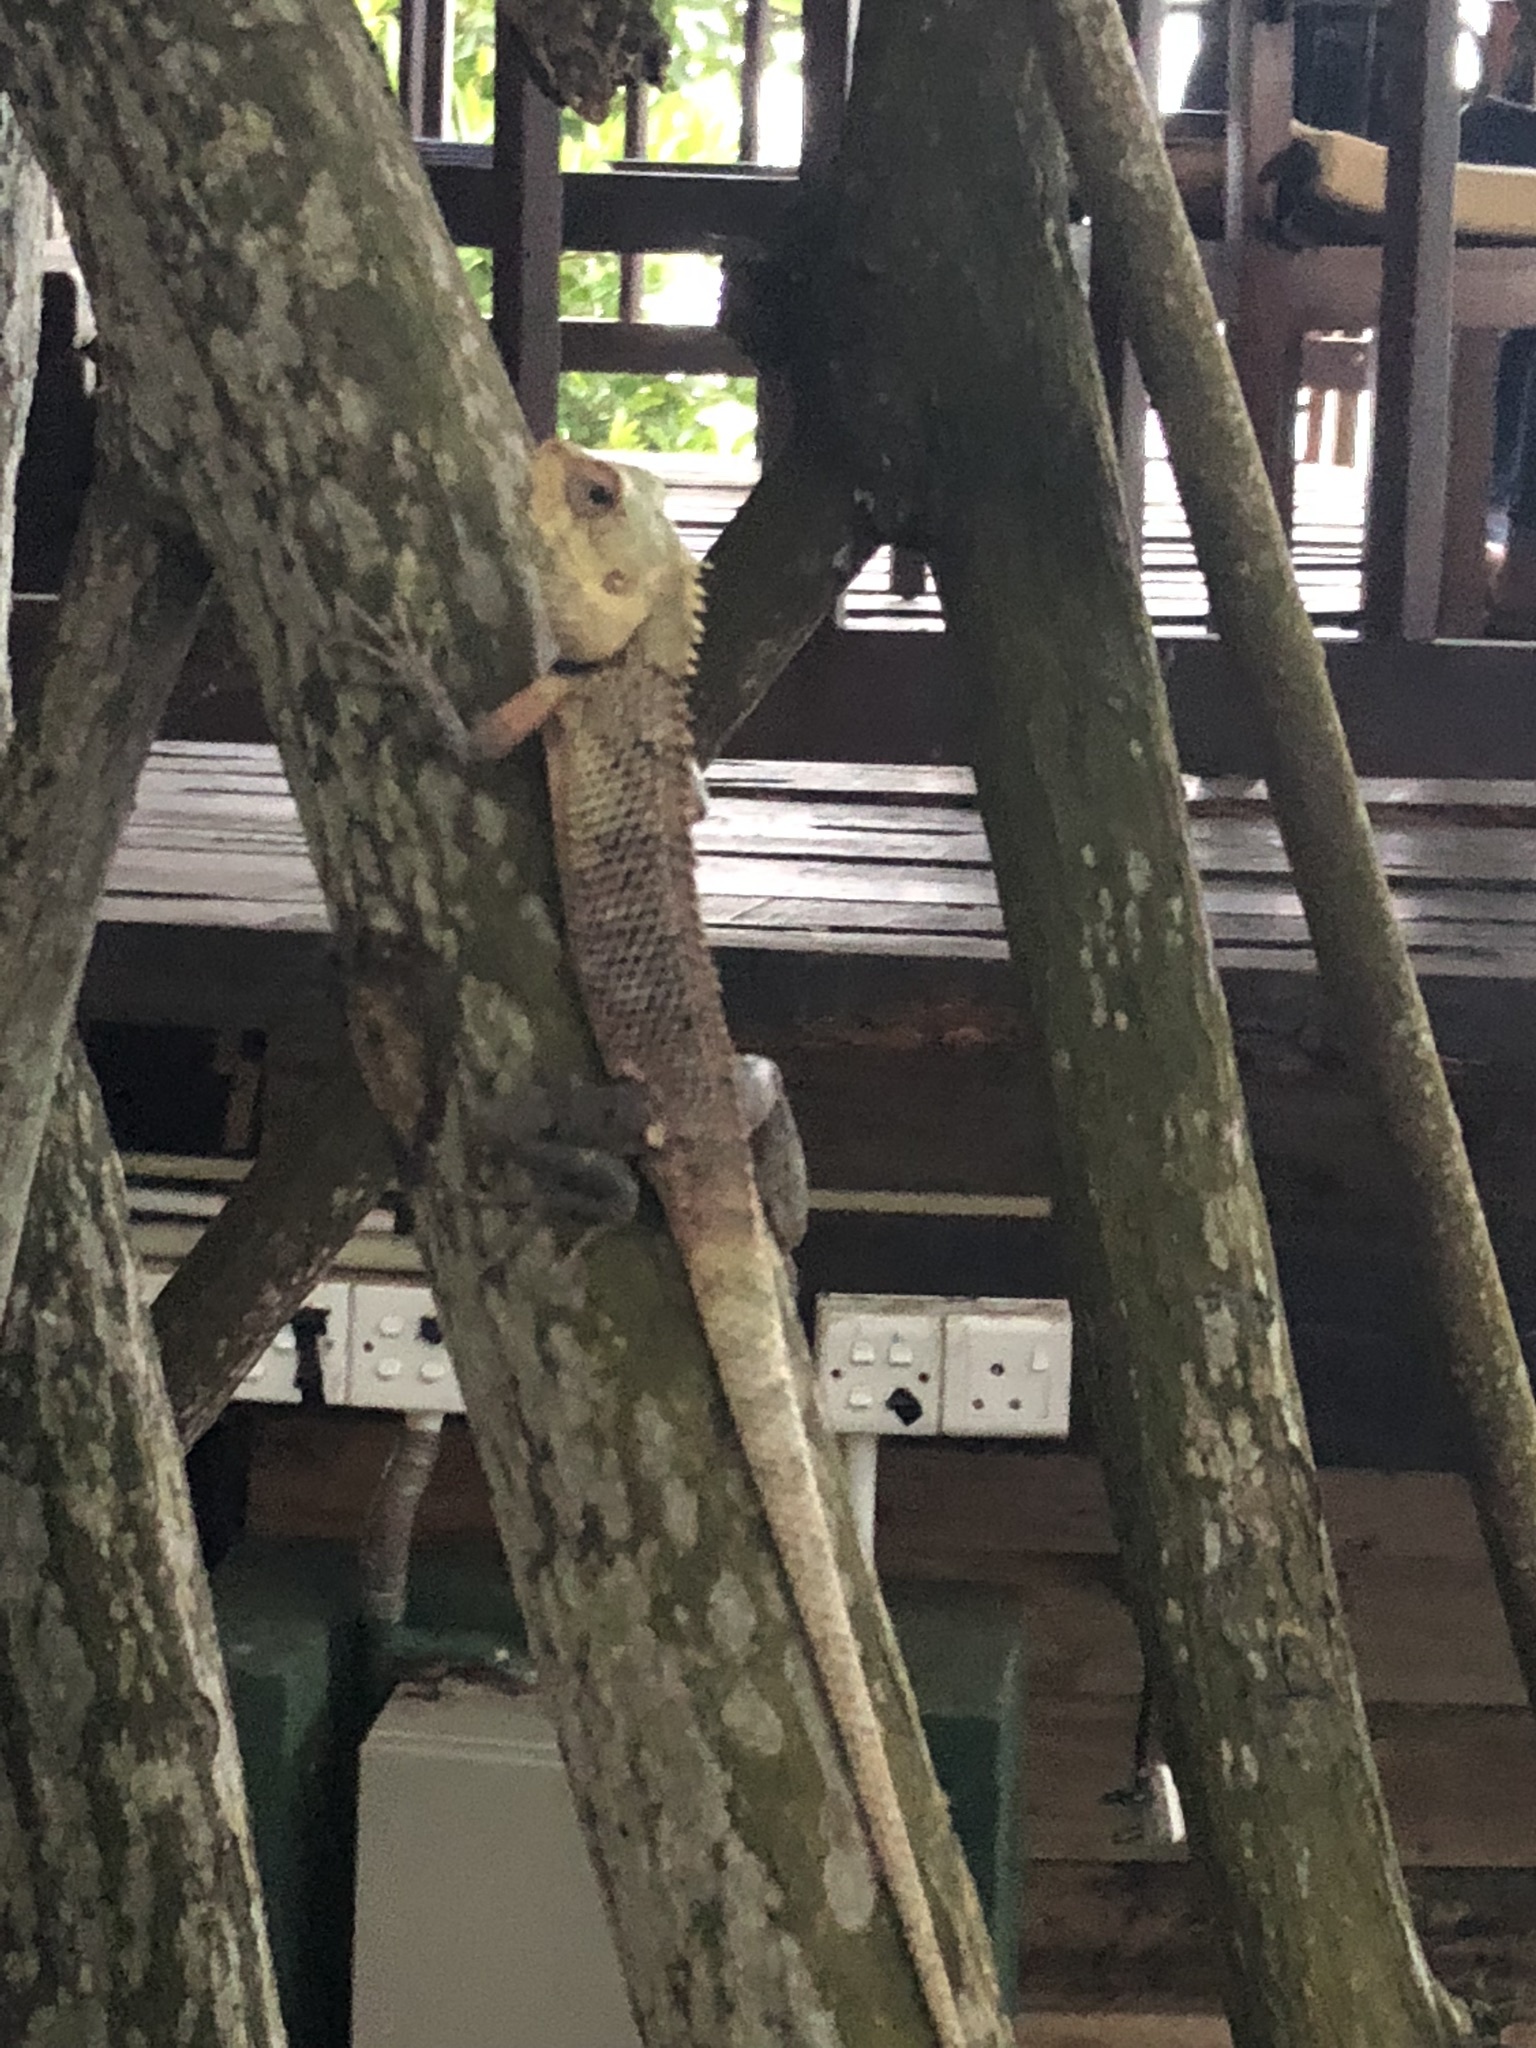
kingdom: Animalia
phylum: Chordata
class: Squamata
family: Agamidae
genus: Calotes
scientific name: Calotes versicolor
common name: Oriental garden lizard
